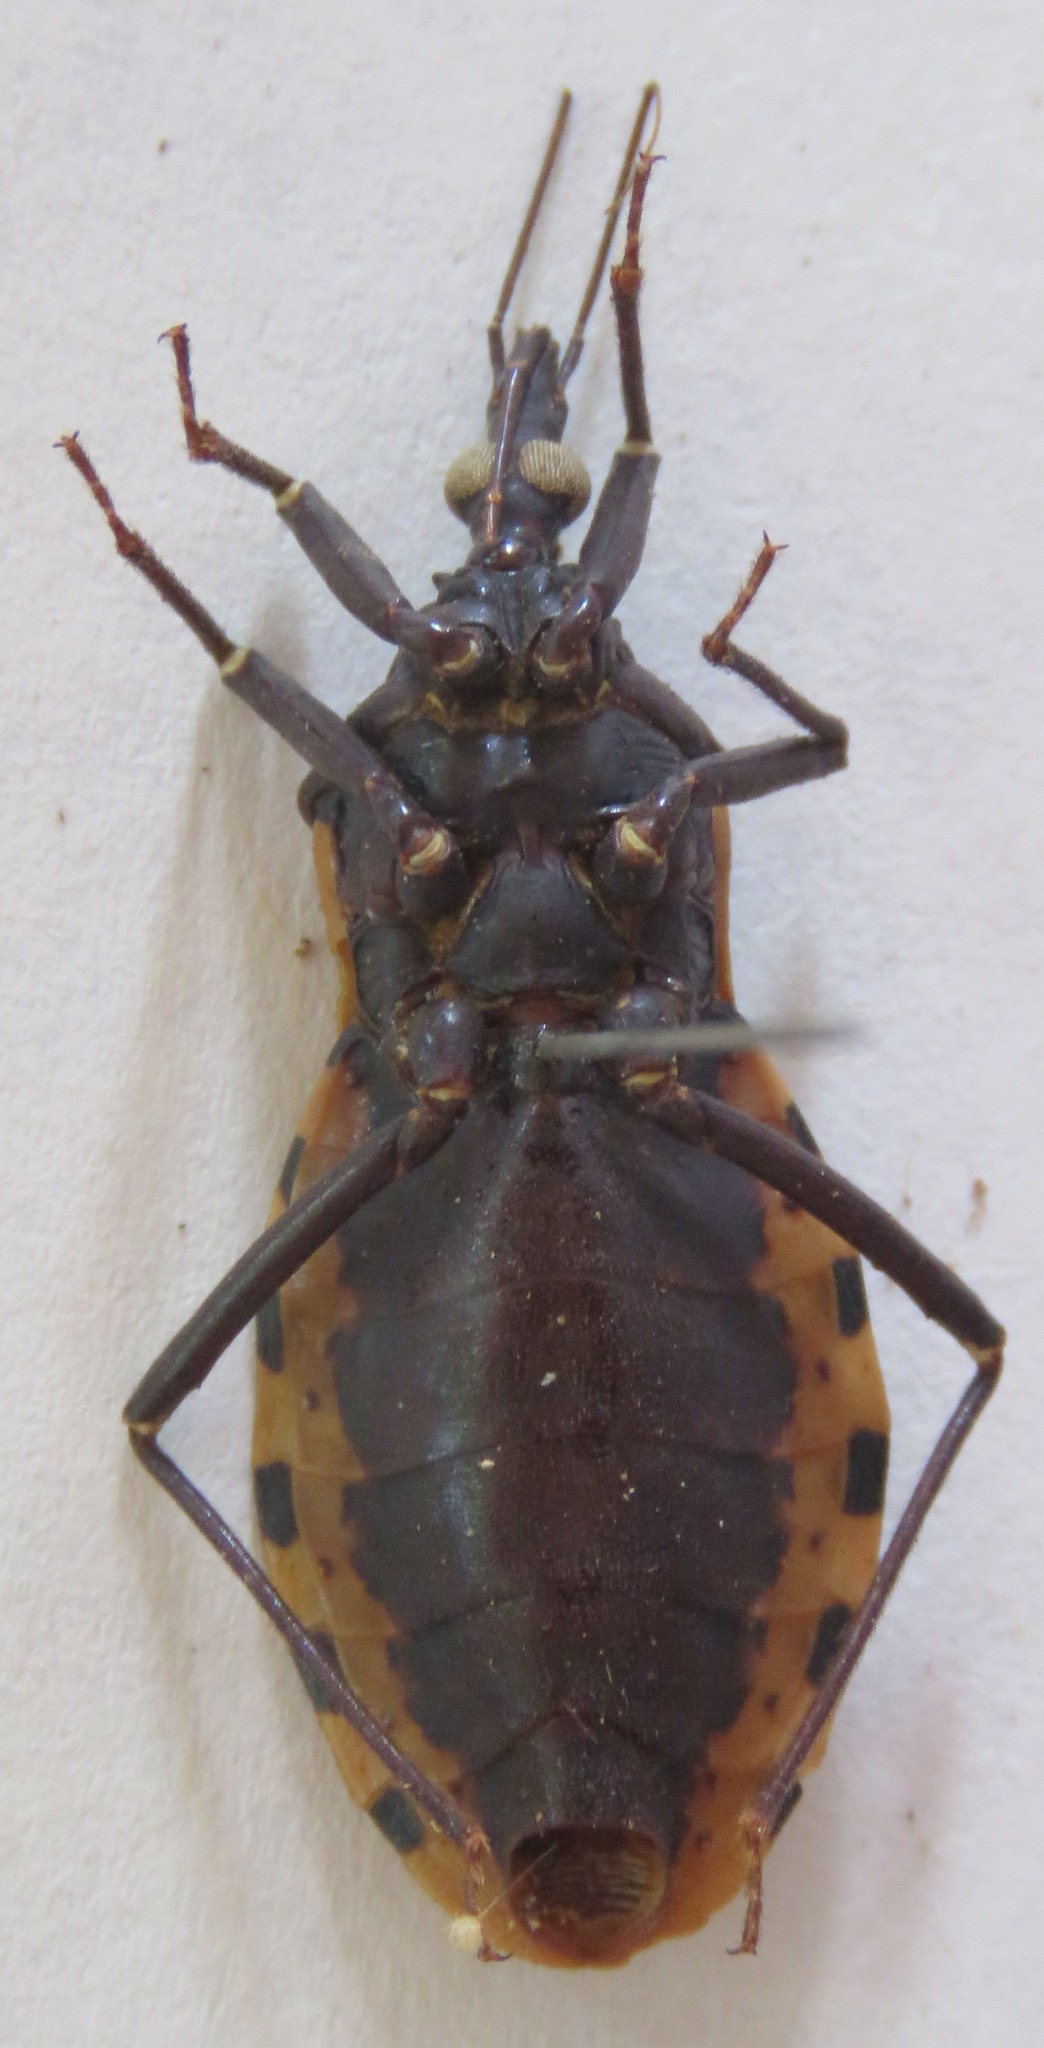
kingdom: Animalia
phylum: Arthropoda
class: Insecta
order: Hemiptera
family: Reduviidae
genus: Meccus
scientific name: Meccus dimidiatus
